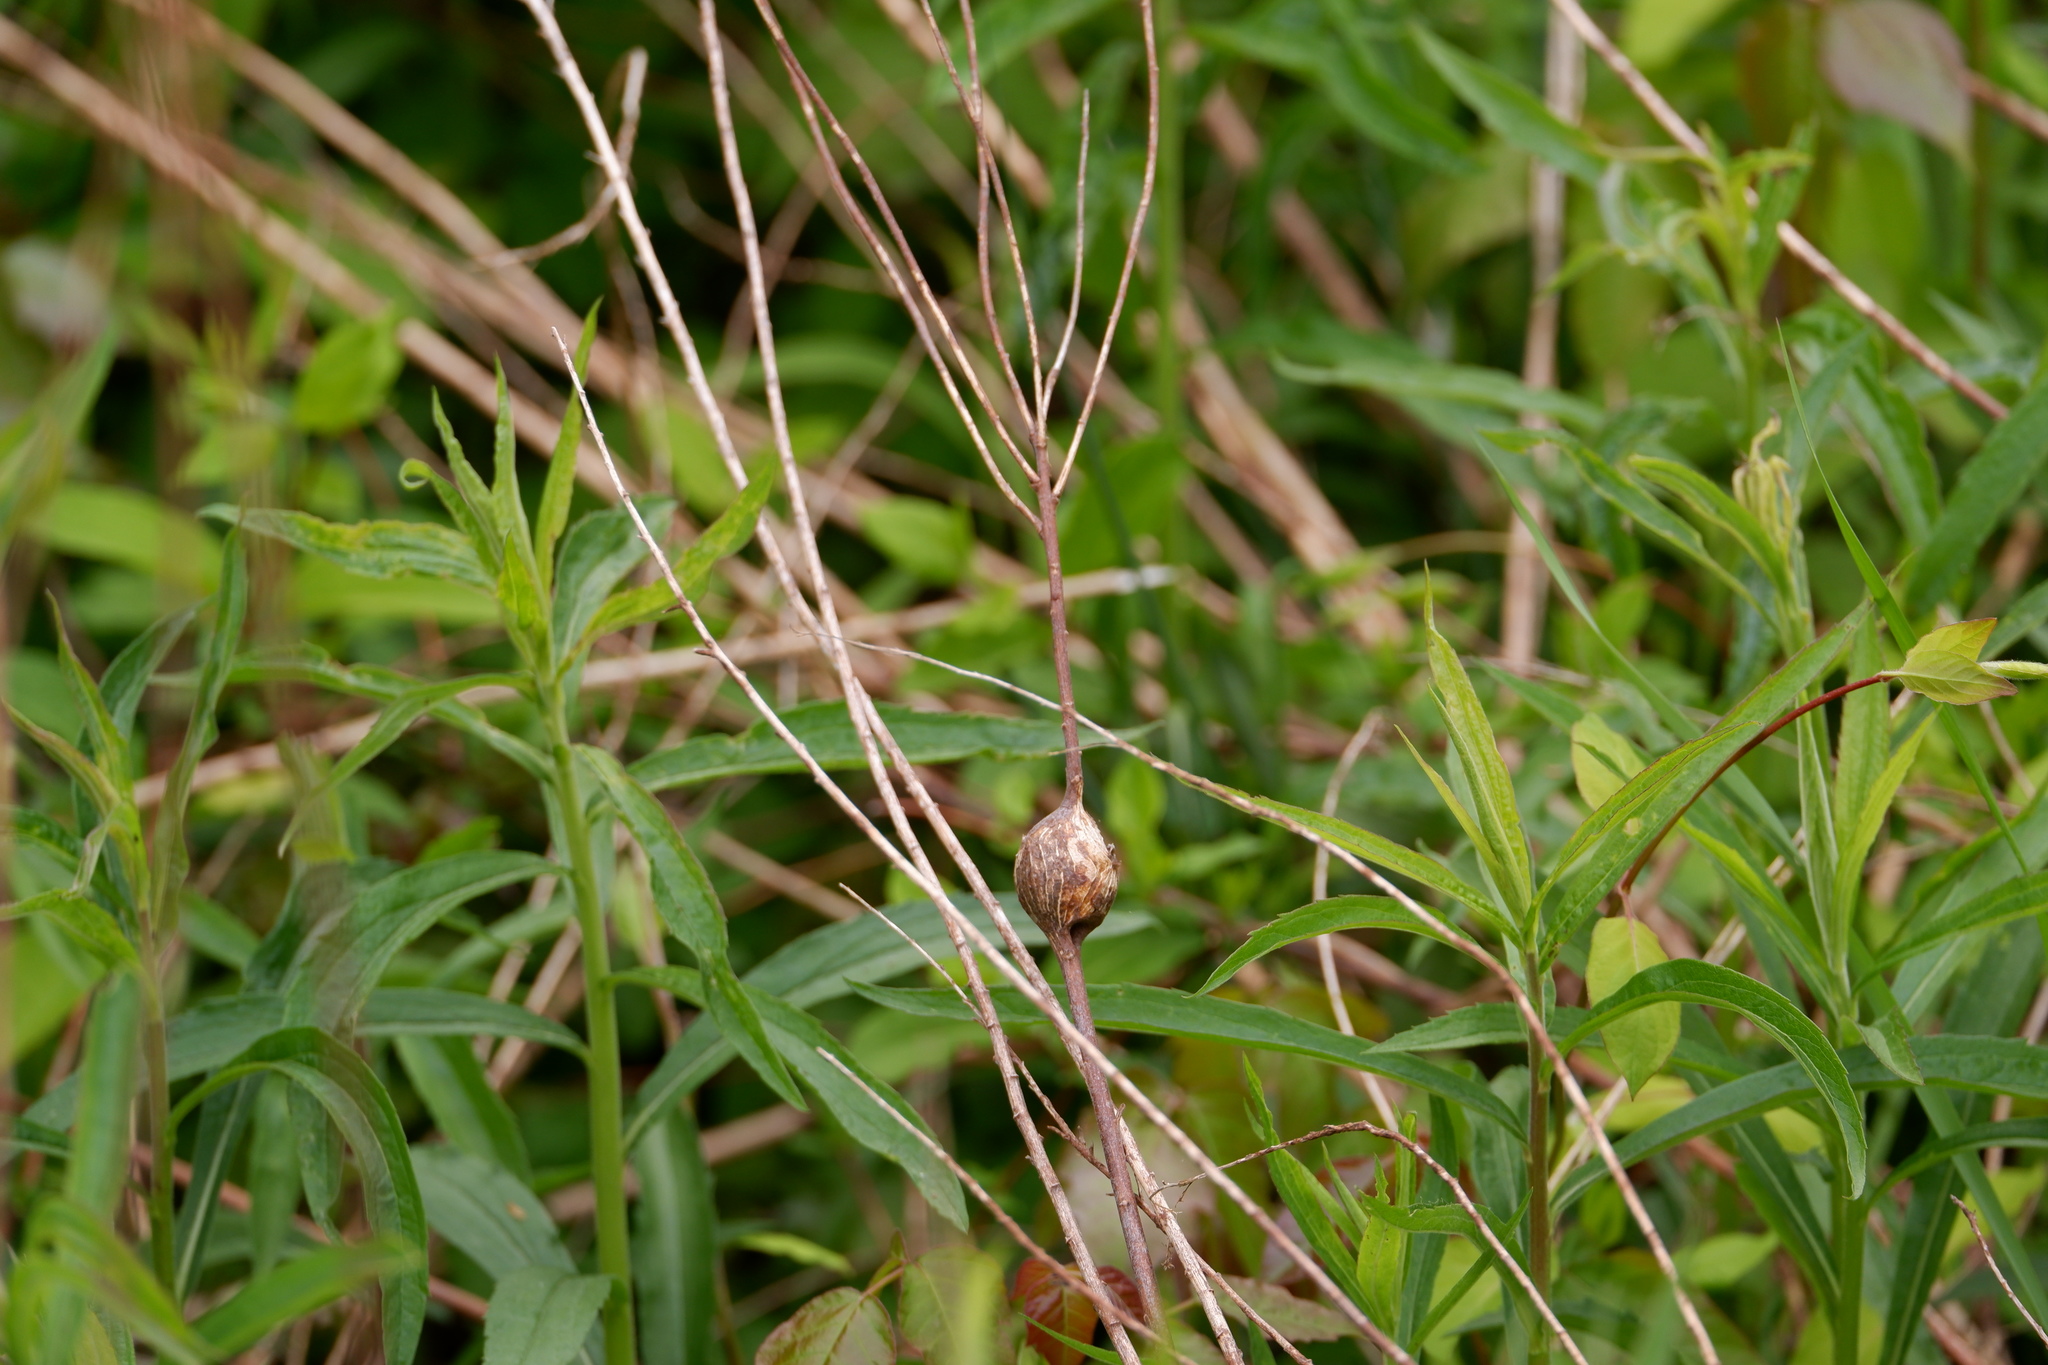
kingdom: Animalia
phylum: Arthropoda
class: Insecta
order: Diptera
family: Tephritidae
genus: Eurosta
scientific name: Eurosta solidaginis
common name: Goldenrod gall fly
